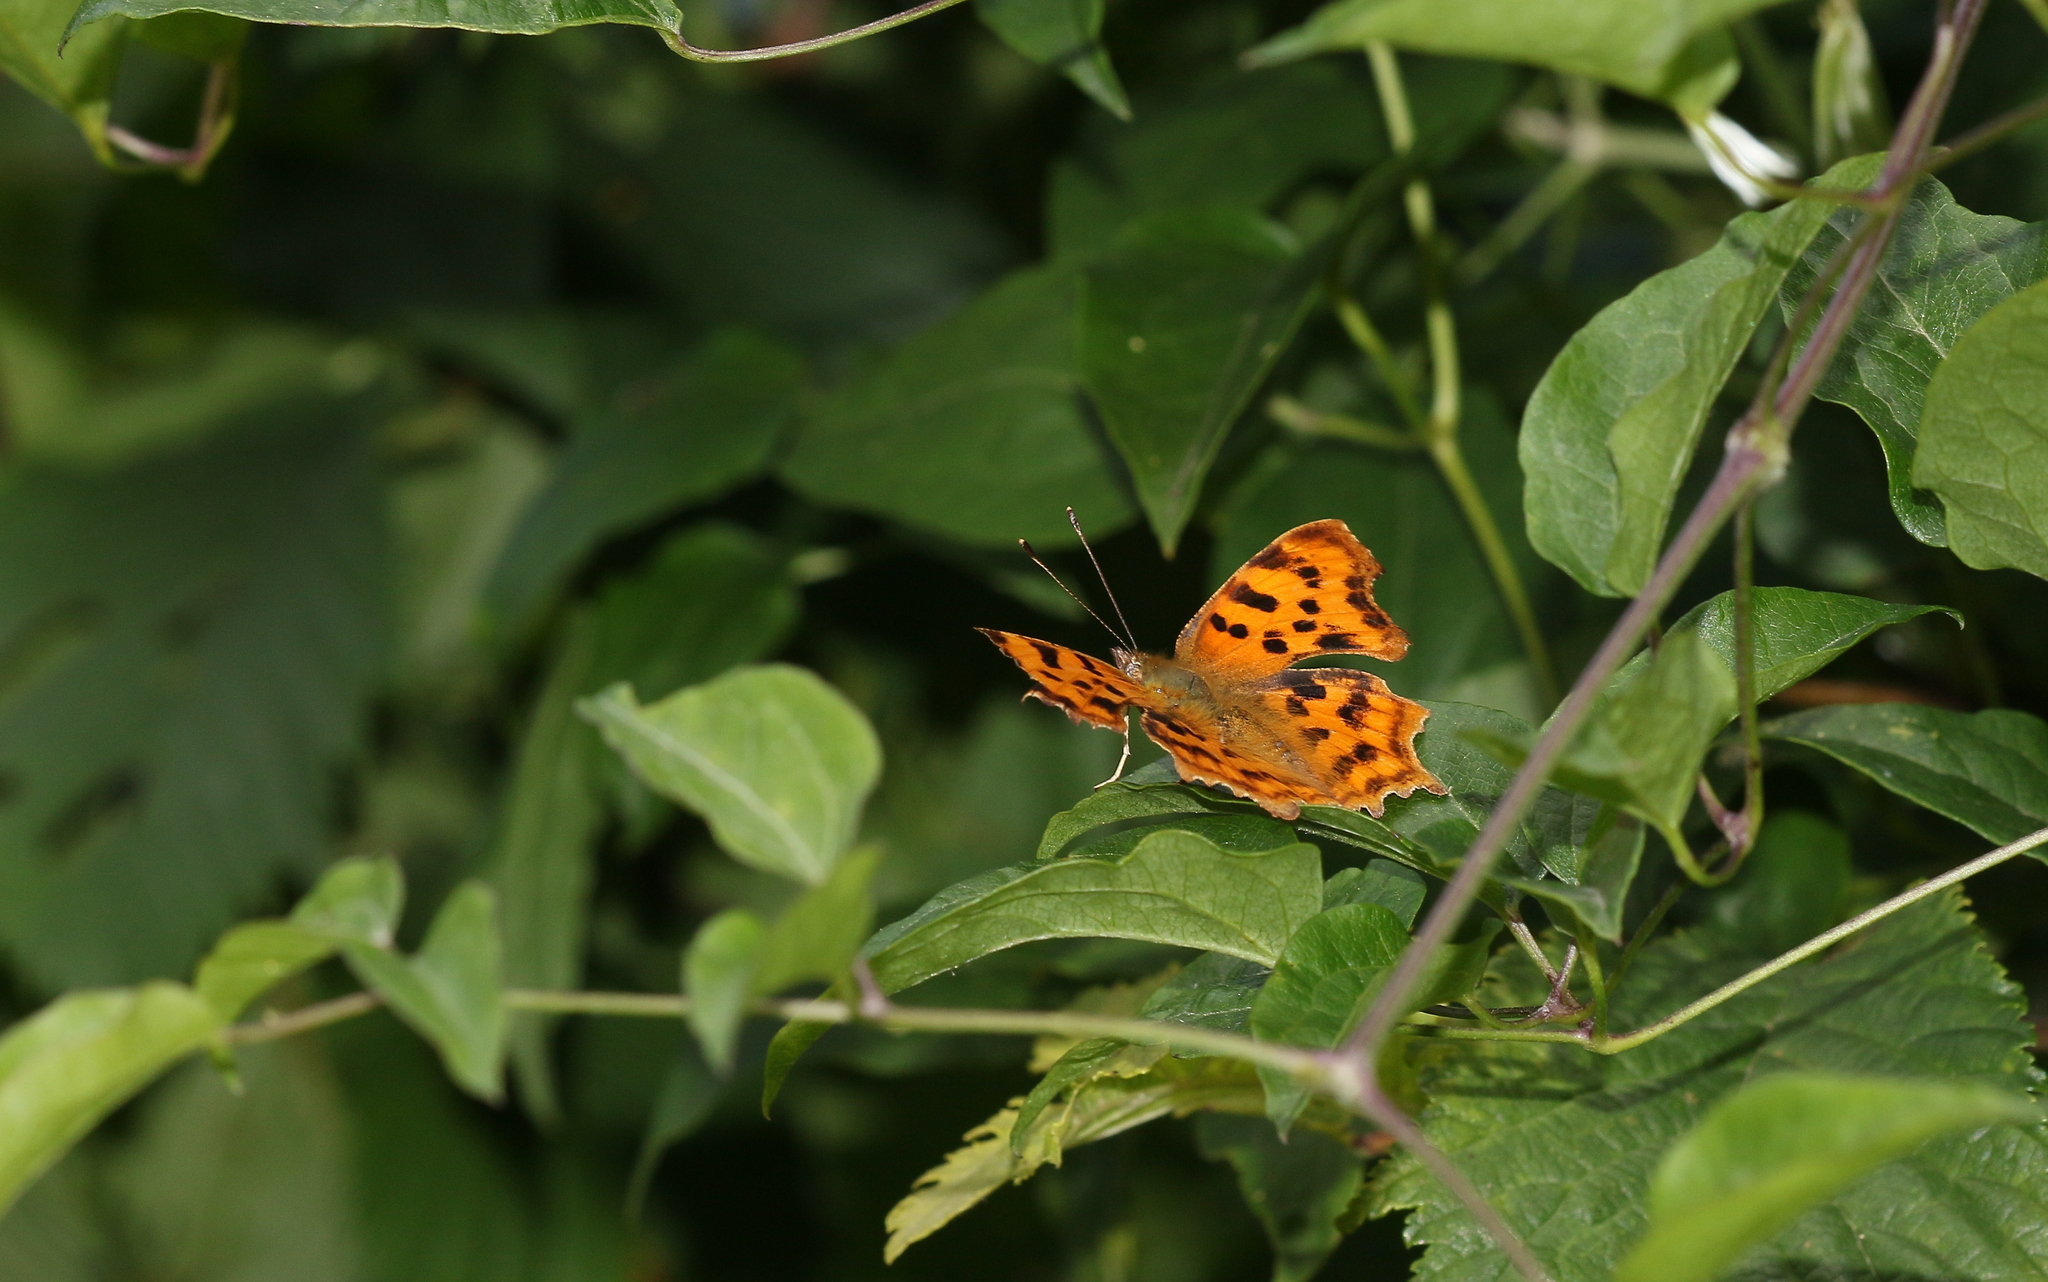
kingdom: Animalia
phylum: Arthropoda
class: Insecta
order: Lepidoptera
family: Nymphalidae
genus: Polygonia
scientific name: Polygonia c-album
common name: Comma
